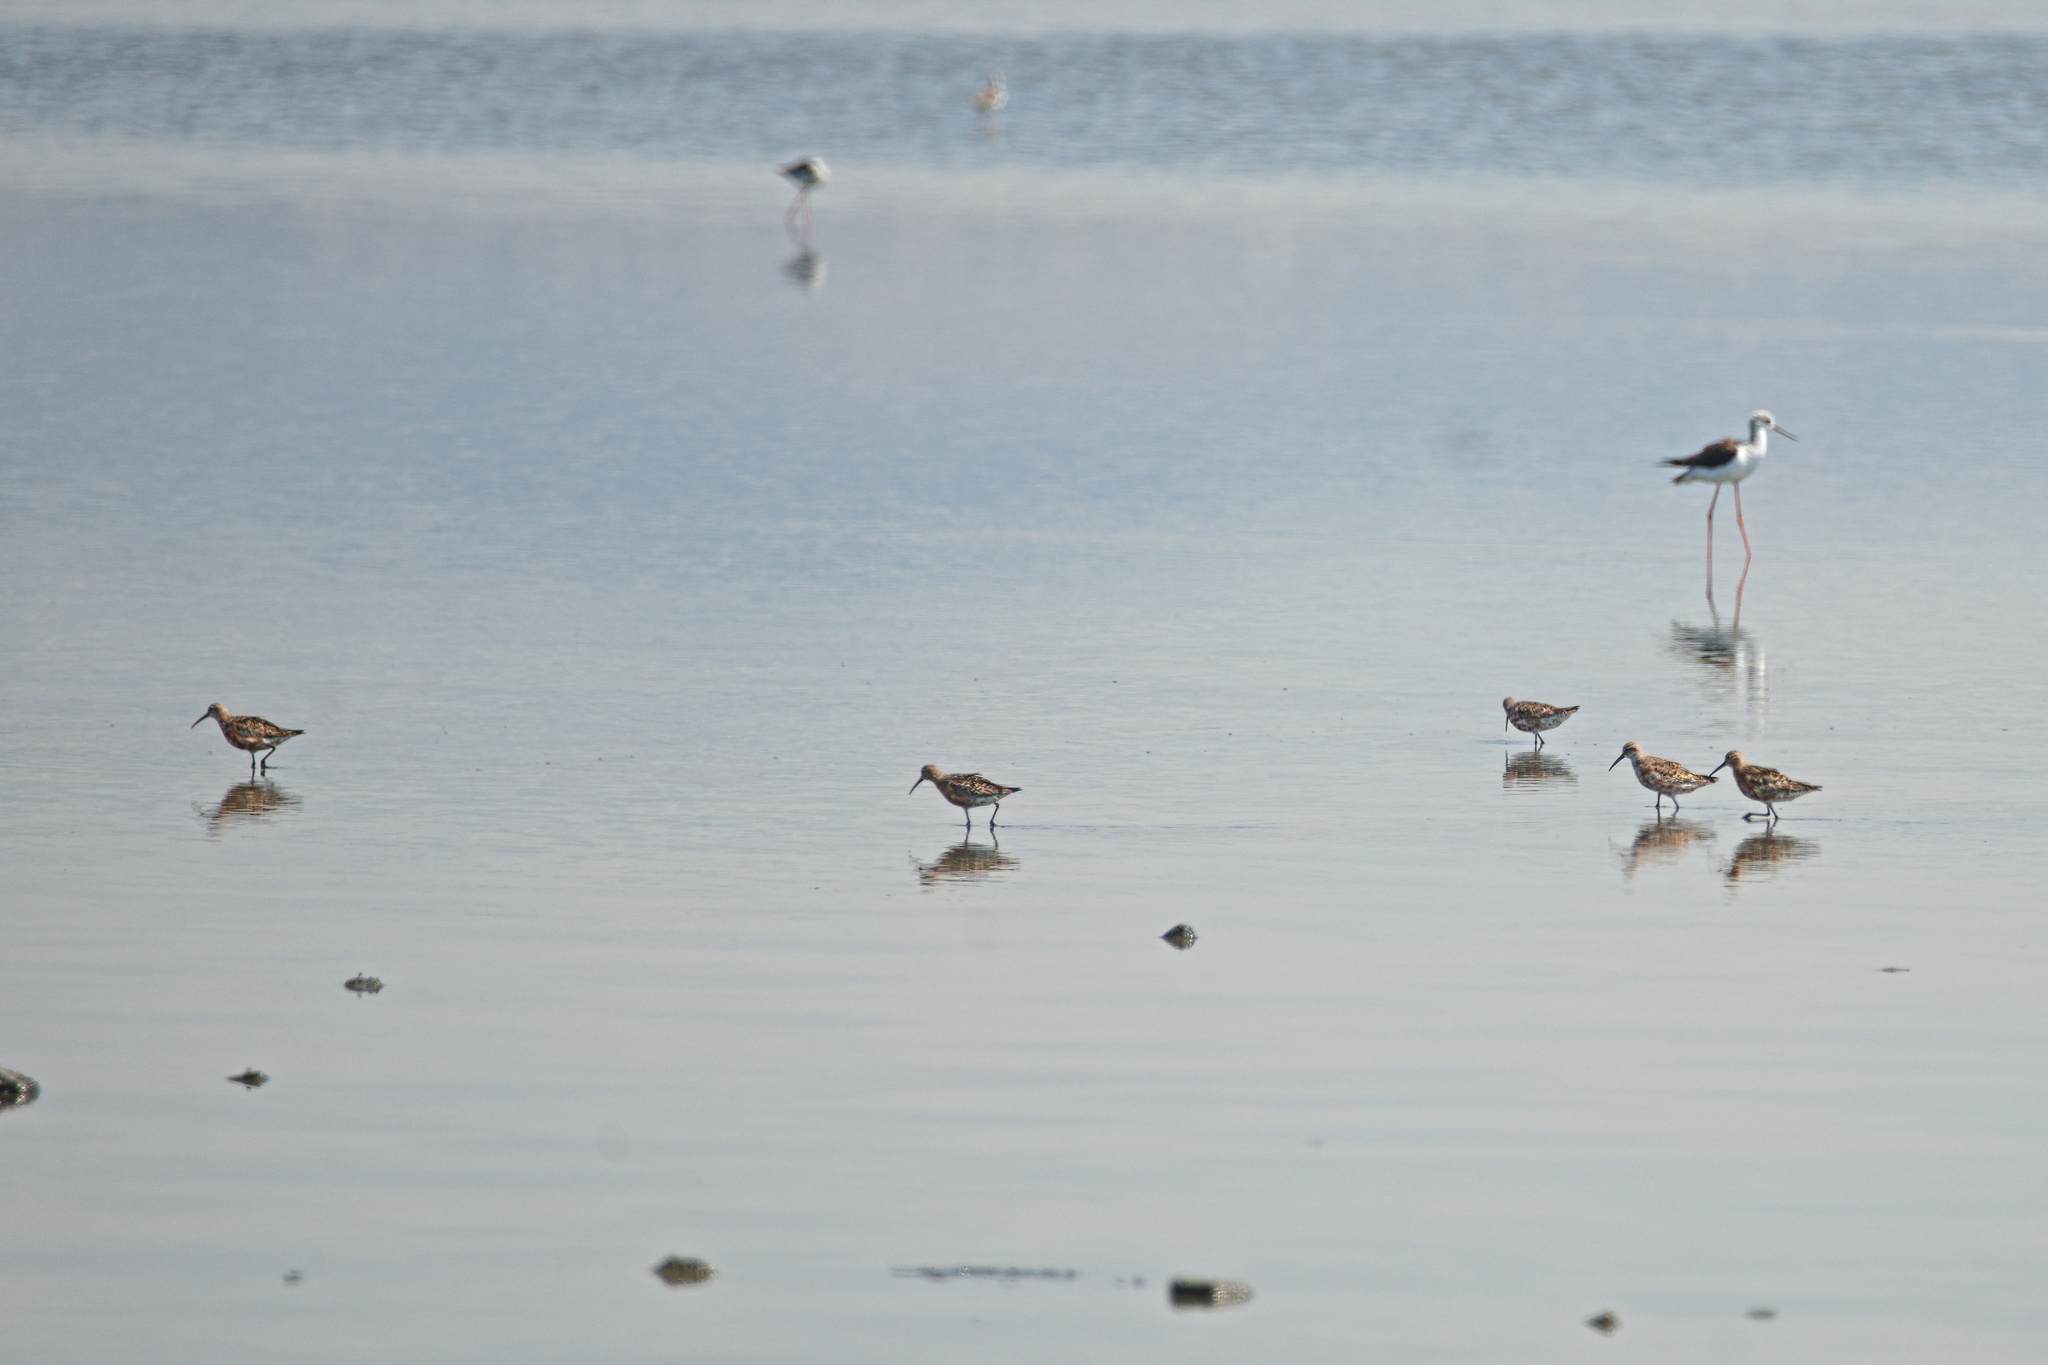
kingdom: Animalia
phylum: Chordata
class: Aves
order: Charadriiformes
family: Scolopacidae
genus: Calidris
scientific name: Calidris ferruginea
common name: Curlew sandpiper
